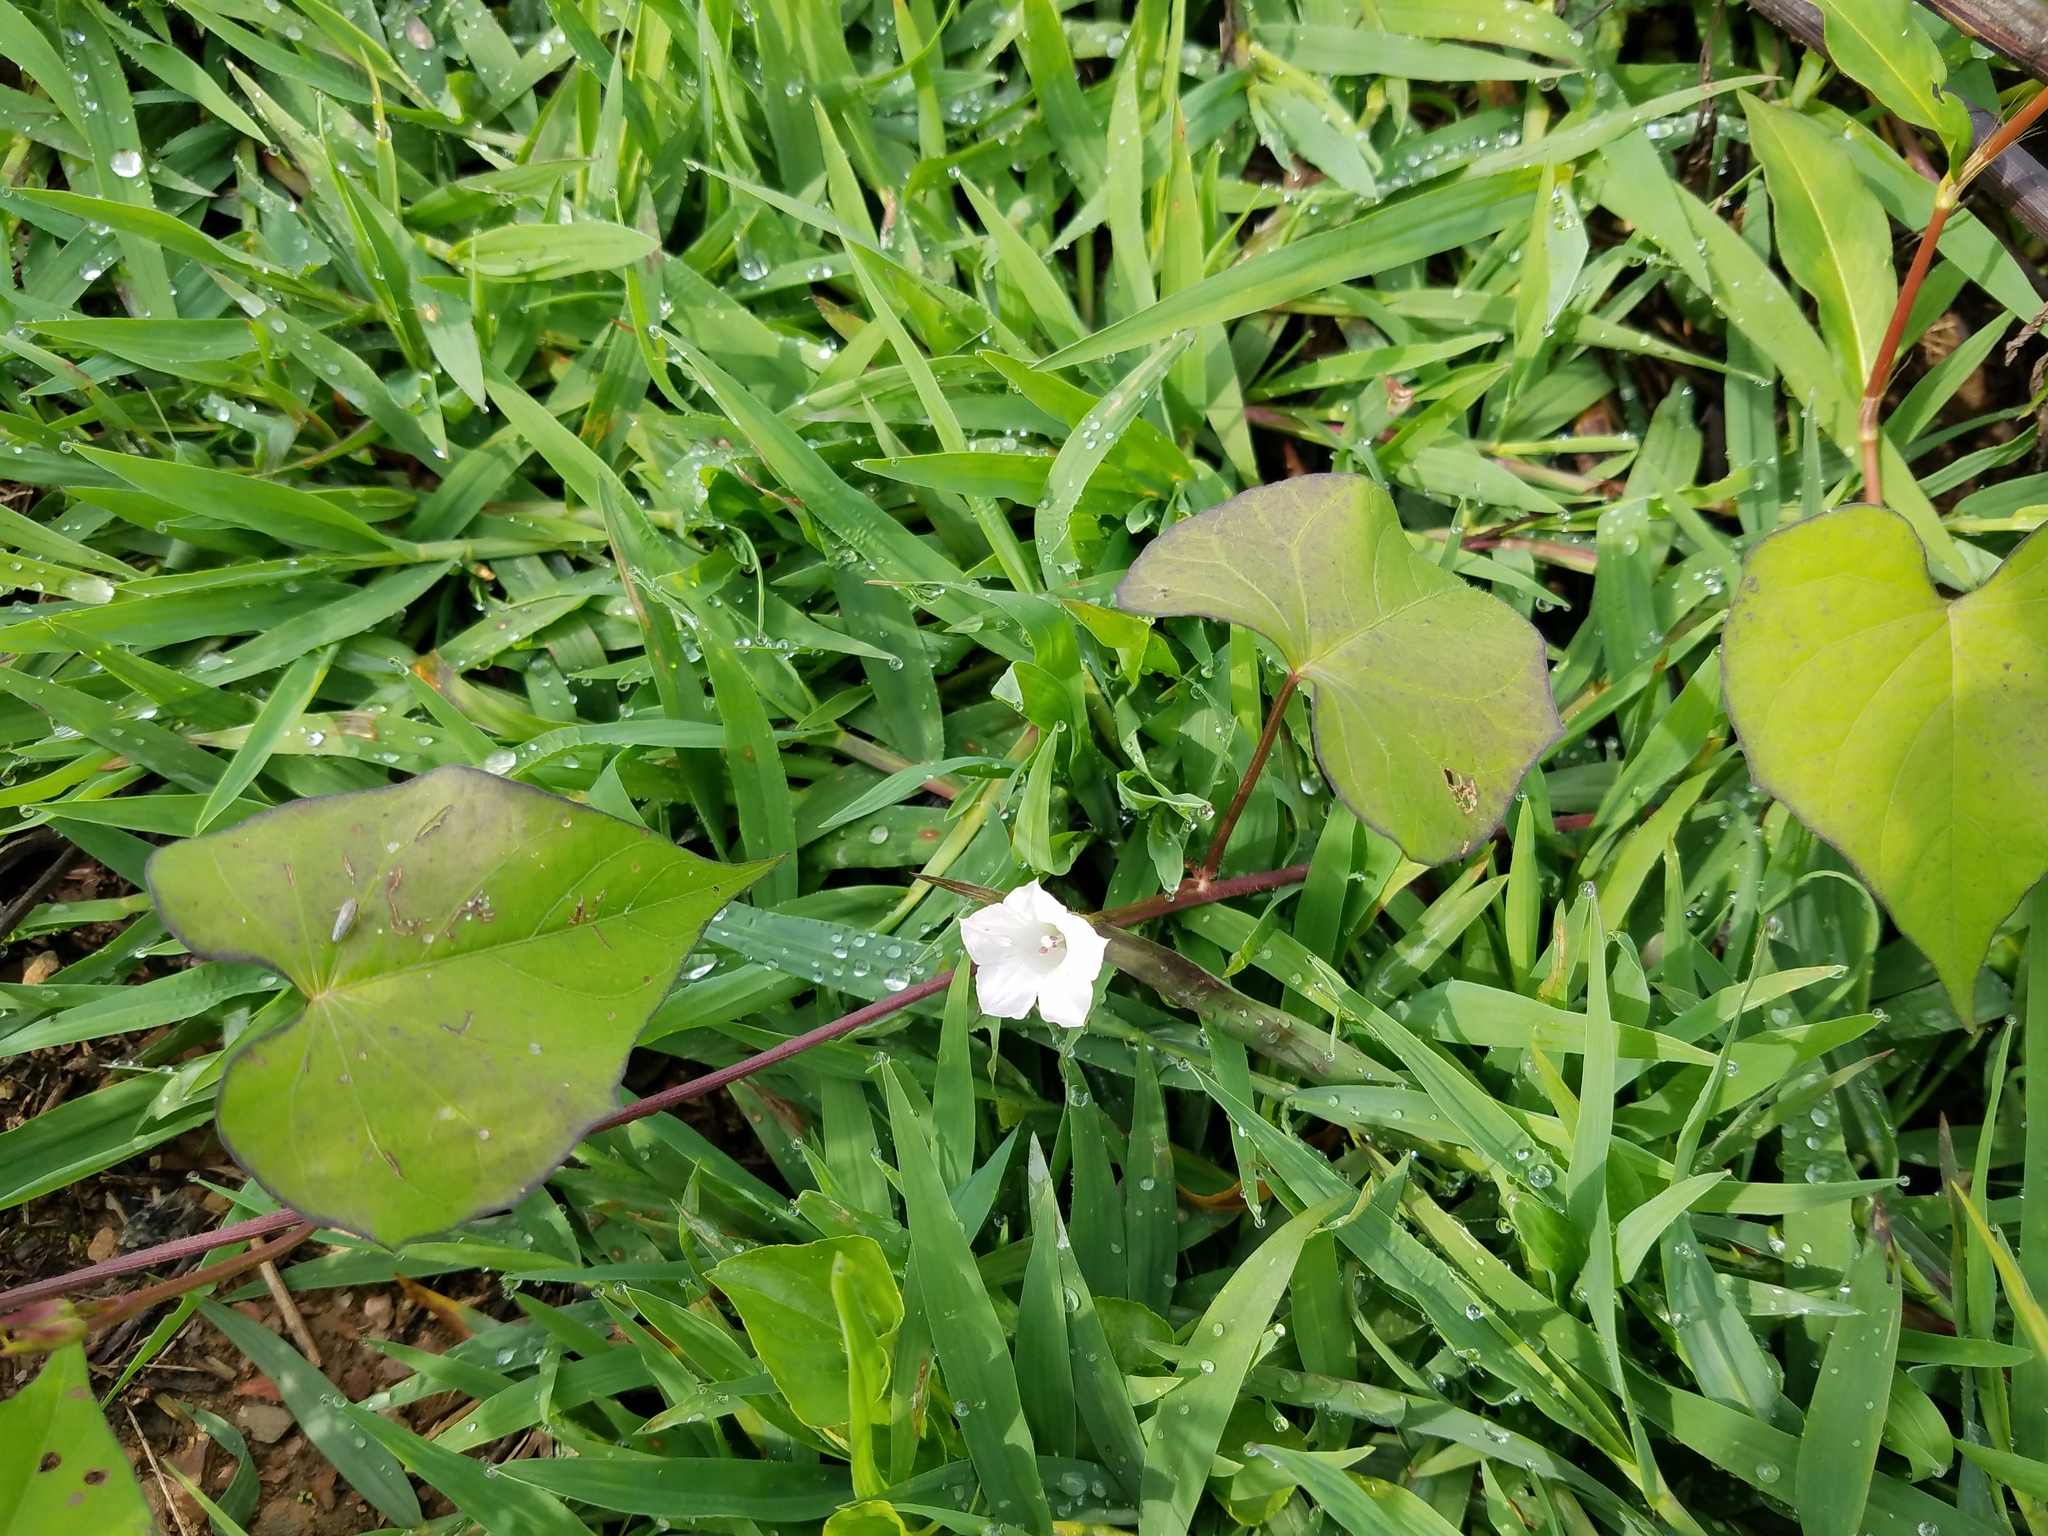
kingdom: Plantae
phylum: Tracheophyta
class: Magnoliopsida
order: Solanales
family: Convolvulaceae
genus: Ipomoea
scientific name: Ipomoea lacunosa
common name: White morning-glory
